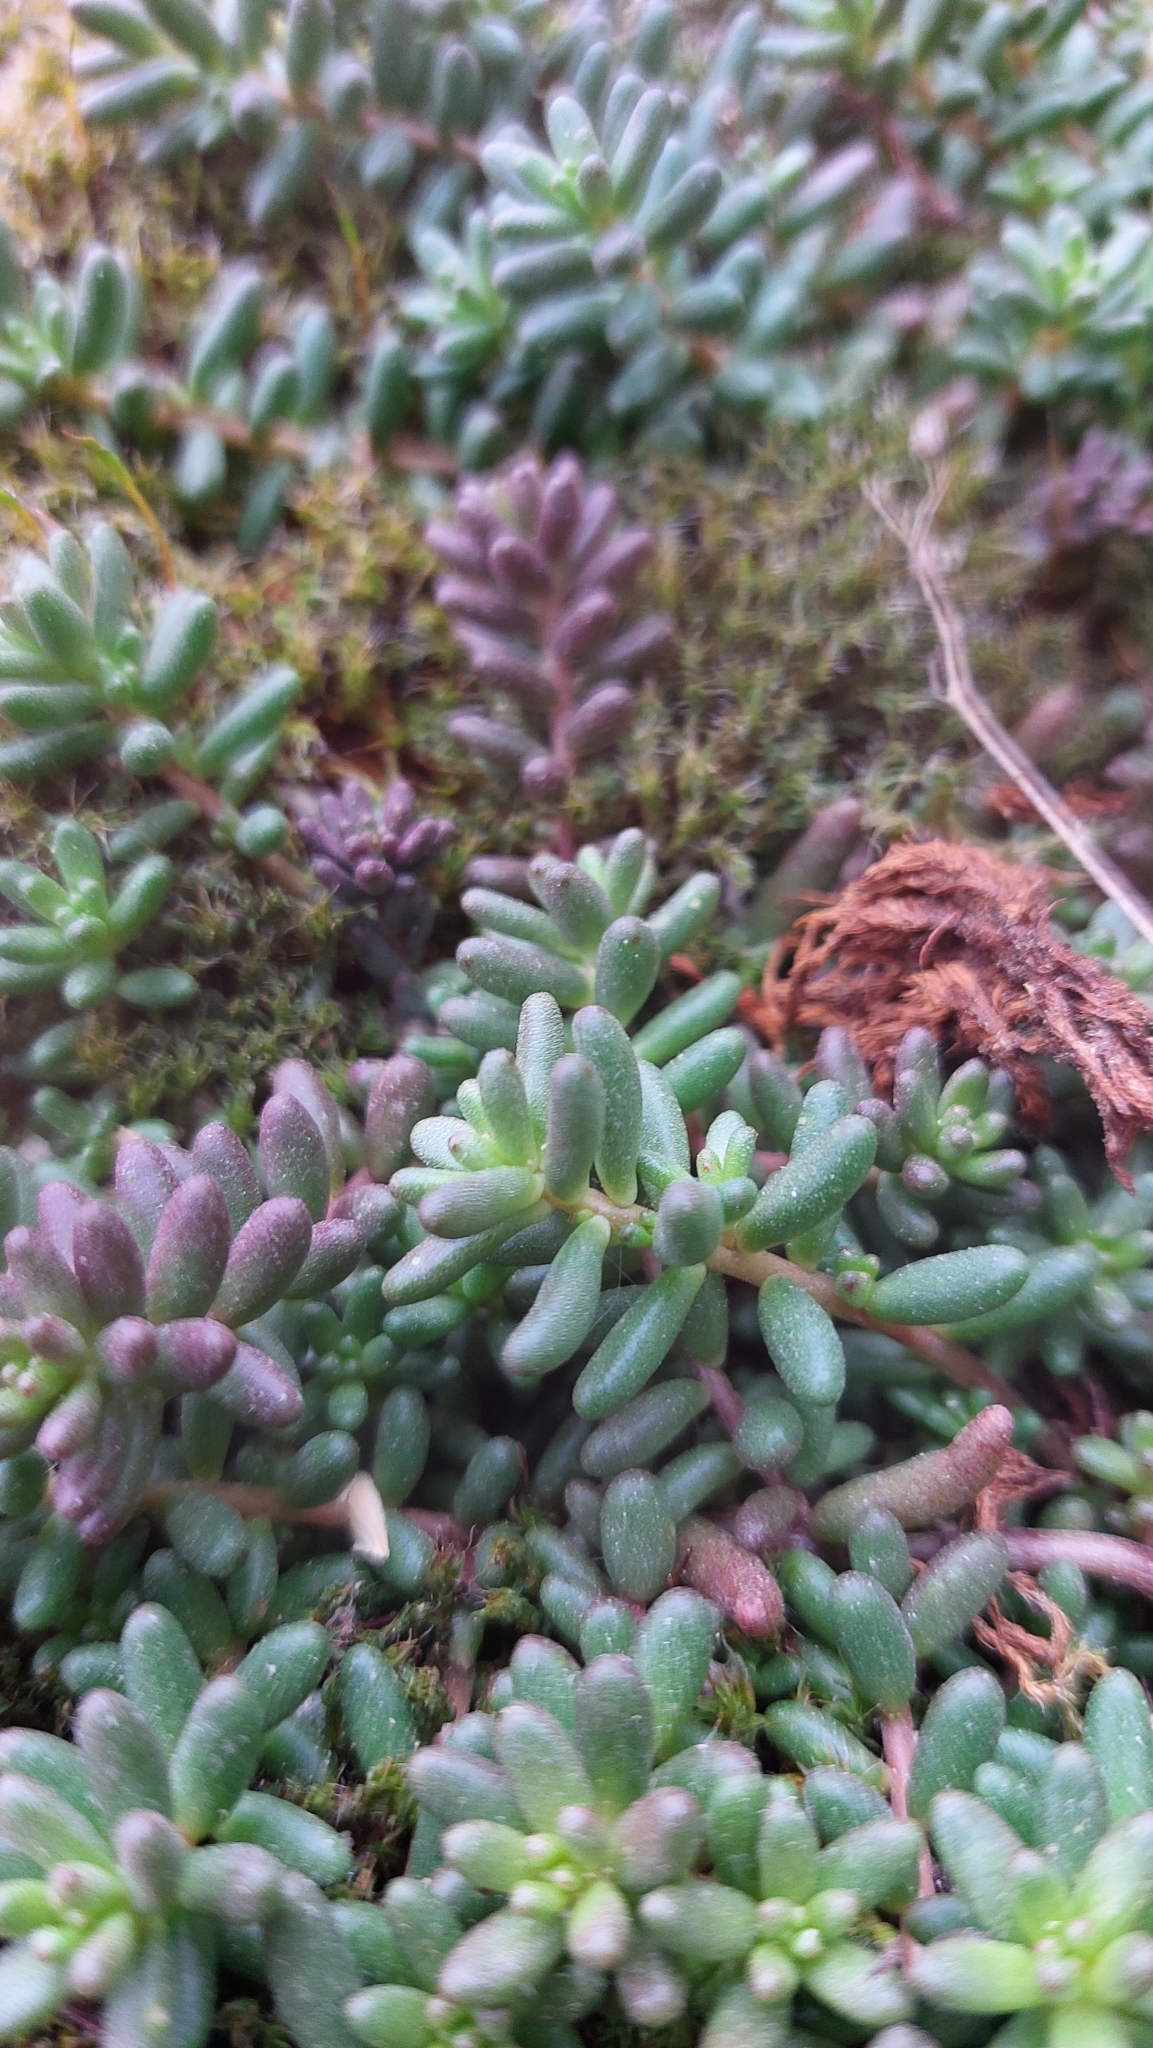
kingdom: Plantae
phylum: Tracheophyta
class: Magnoliopsida
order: Saxifragales
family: Crassulaceae
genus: Sedum
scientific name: Sedum album
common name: White stonecrop
